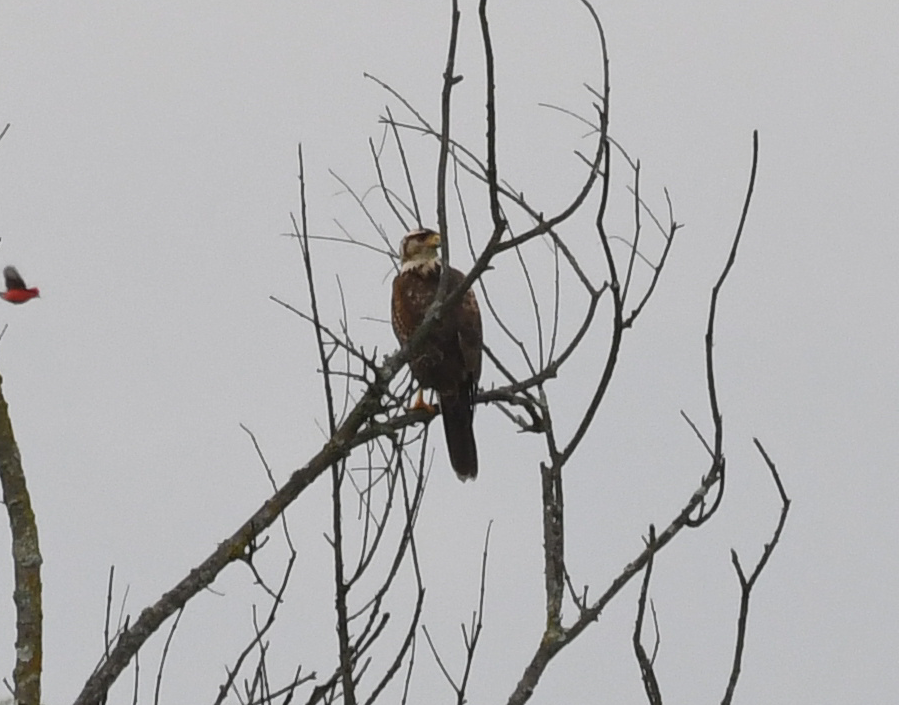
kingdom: Animalia
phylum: Chordata
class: Aves
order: Accipitriformes
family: Accipitridae
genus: Parabuteo
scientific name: Parabuteo unicinctus
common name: Harris's hawk
